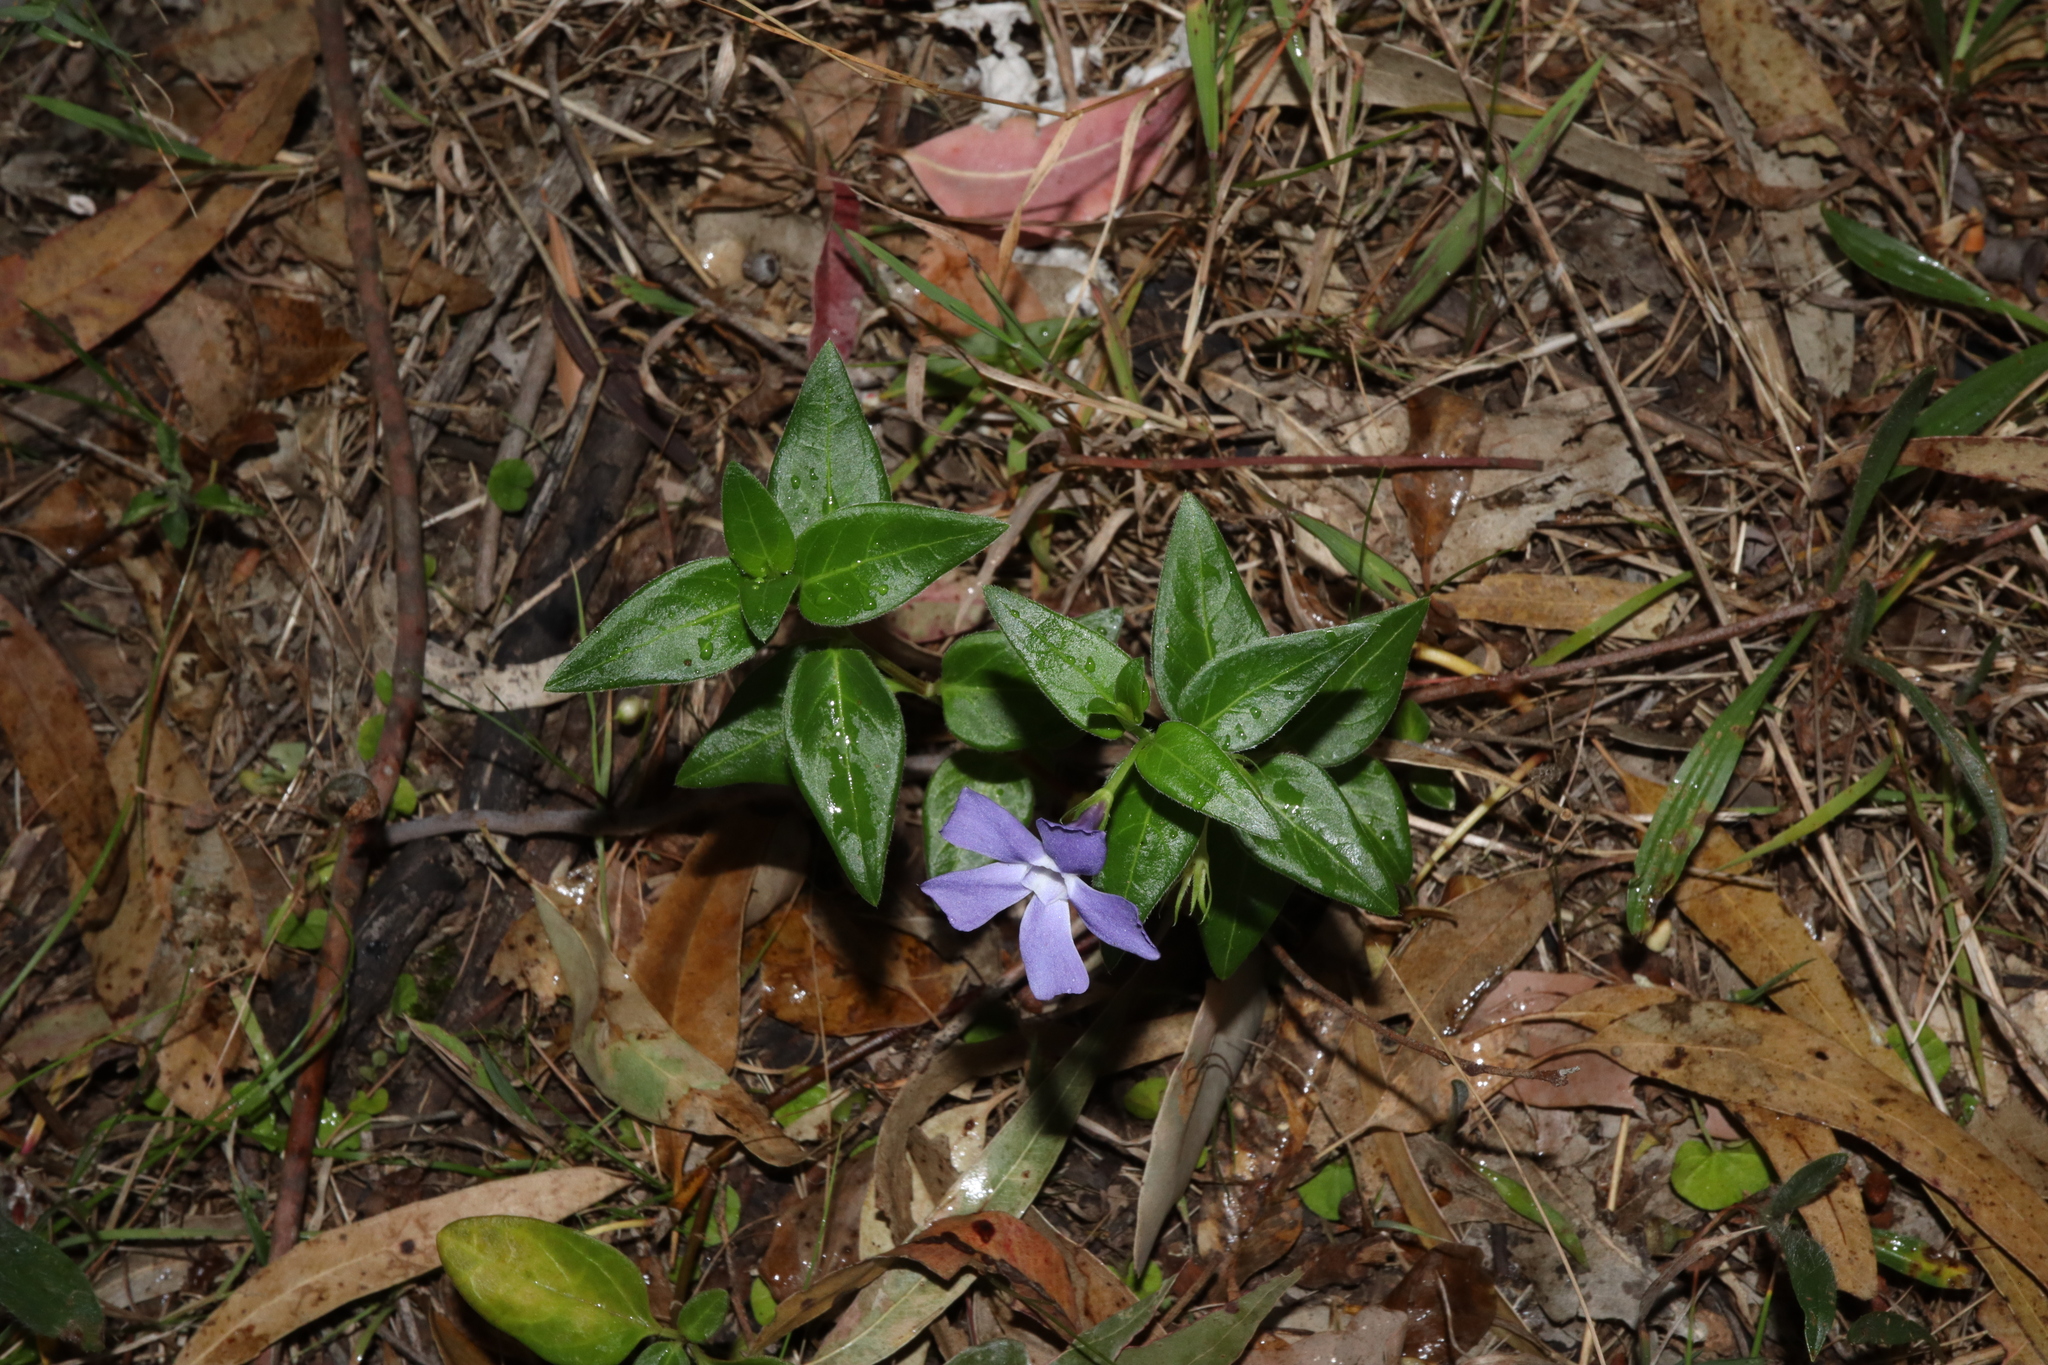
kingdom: Plantae
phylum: Tracheophyta
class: Magnoliopsida
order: Gentianales
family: Apocynaceae
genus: Vinca
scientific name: Vinca major
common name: Greater periwinkle
